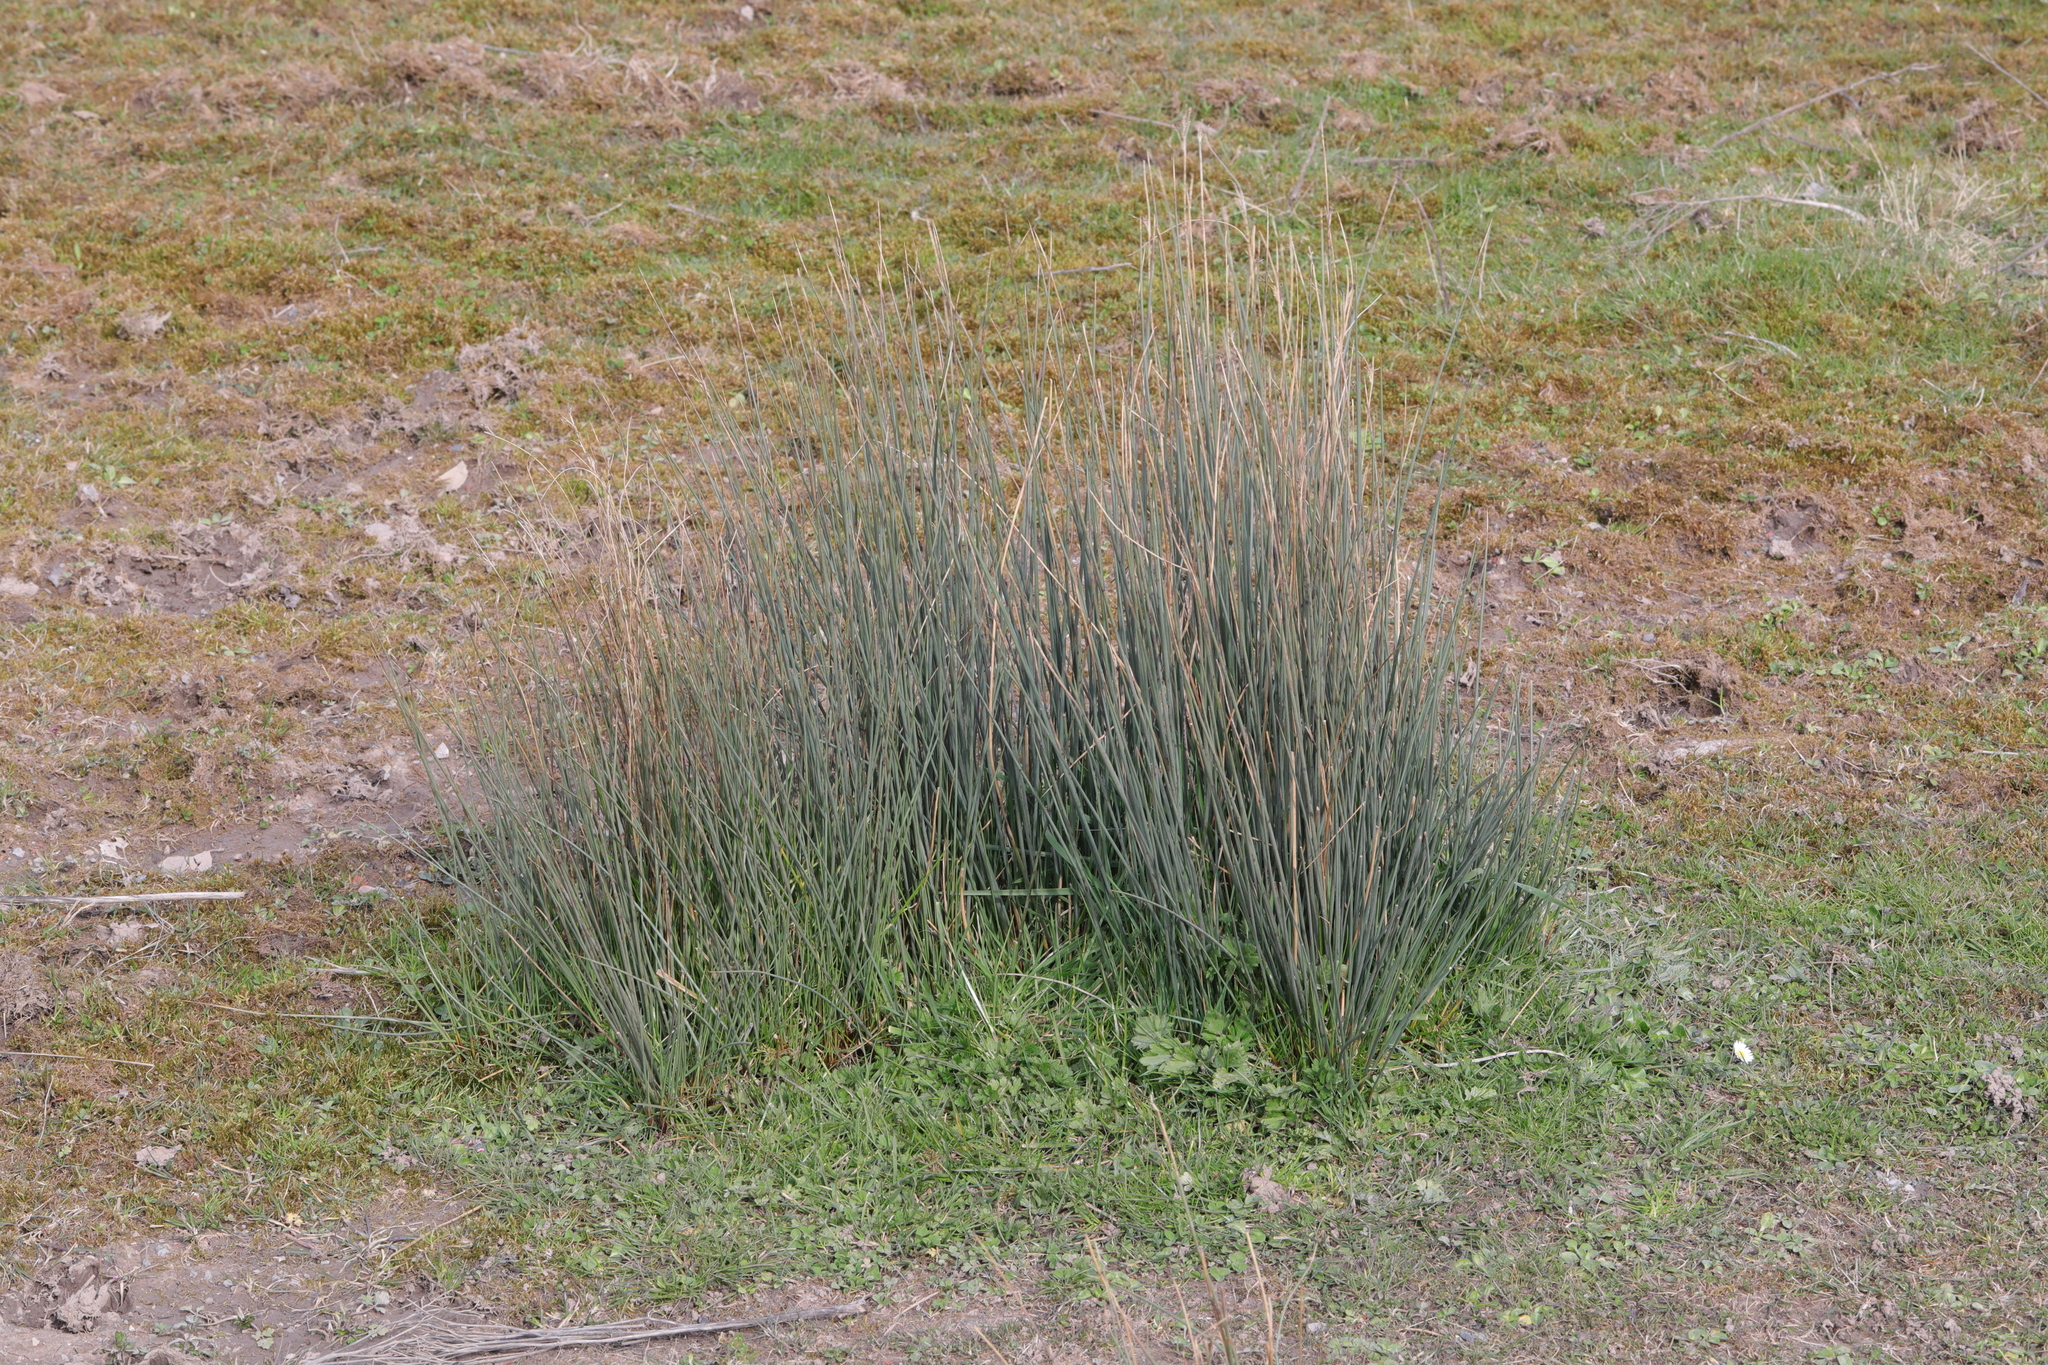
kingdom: Plantae
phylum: Tracheophyta
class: Liliopsida
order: Poales
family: Juncaceae
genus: Juncus
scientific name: Juncus inflexus
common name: Hard rush
